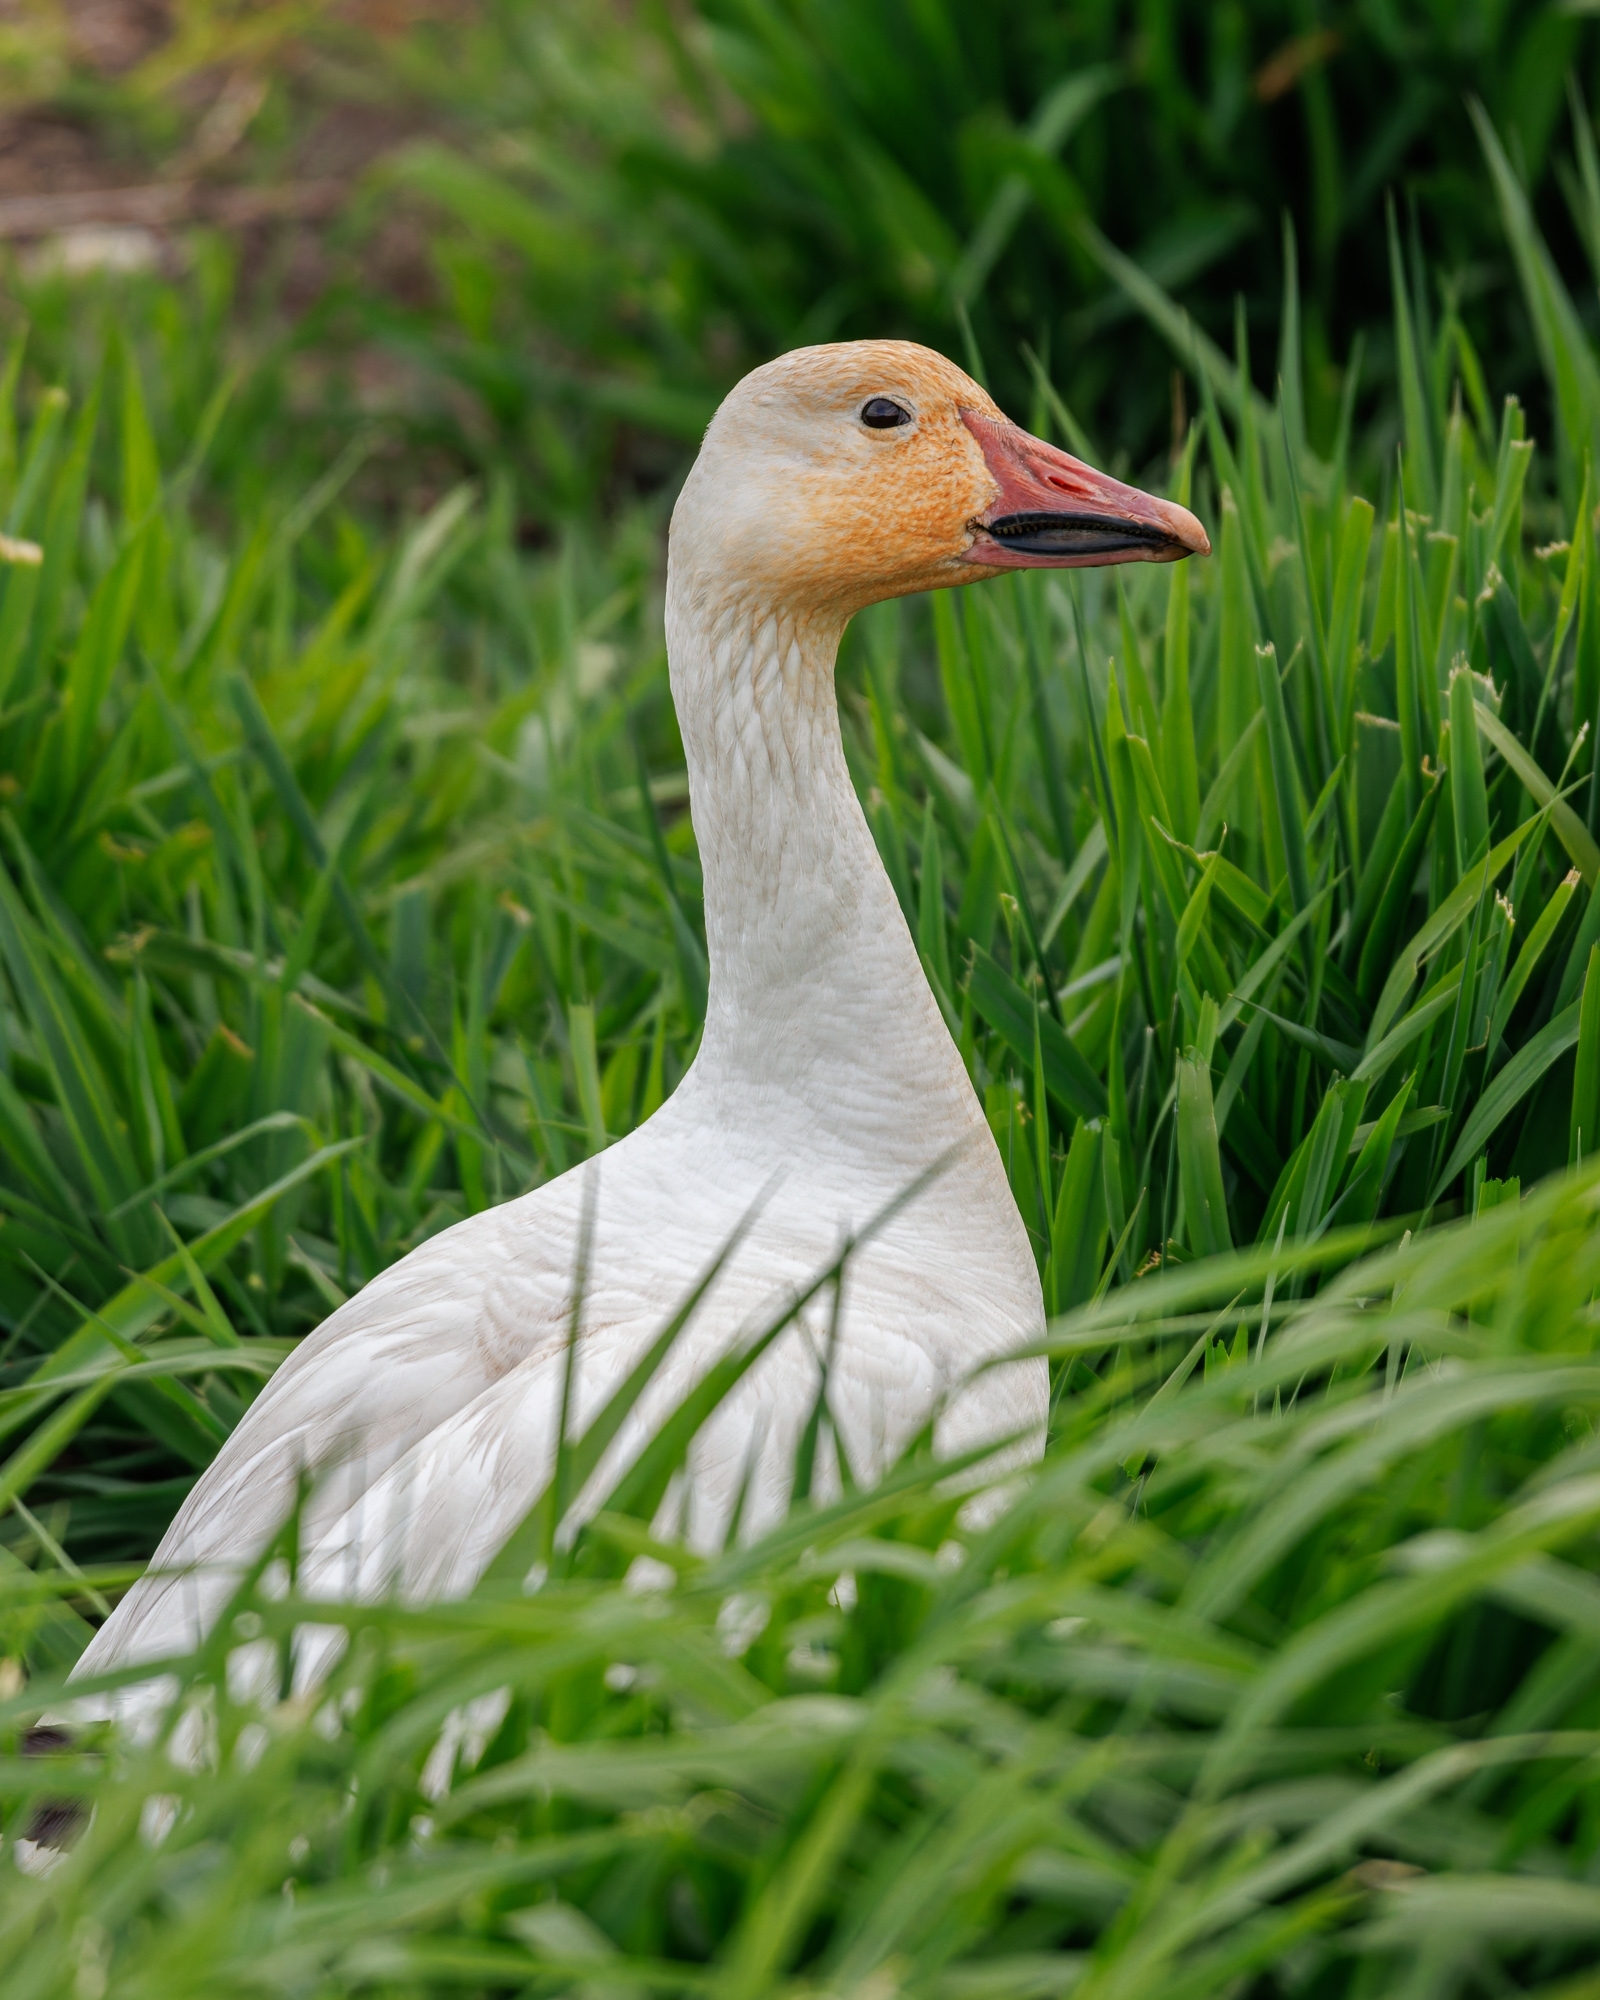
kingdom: Animalia
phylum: Chordata
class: Aves
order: Anseriformes
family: Anatidae
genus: Anser
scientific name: Anser caerulescens
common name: Snow goose
